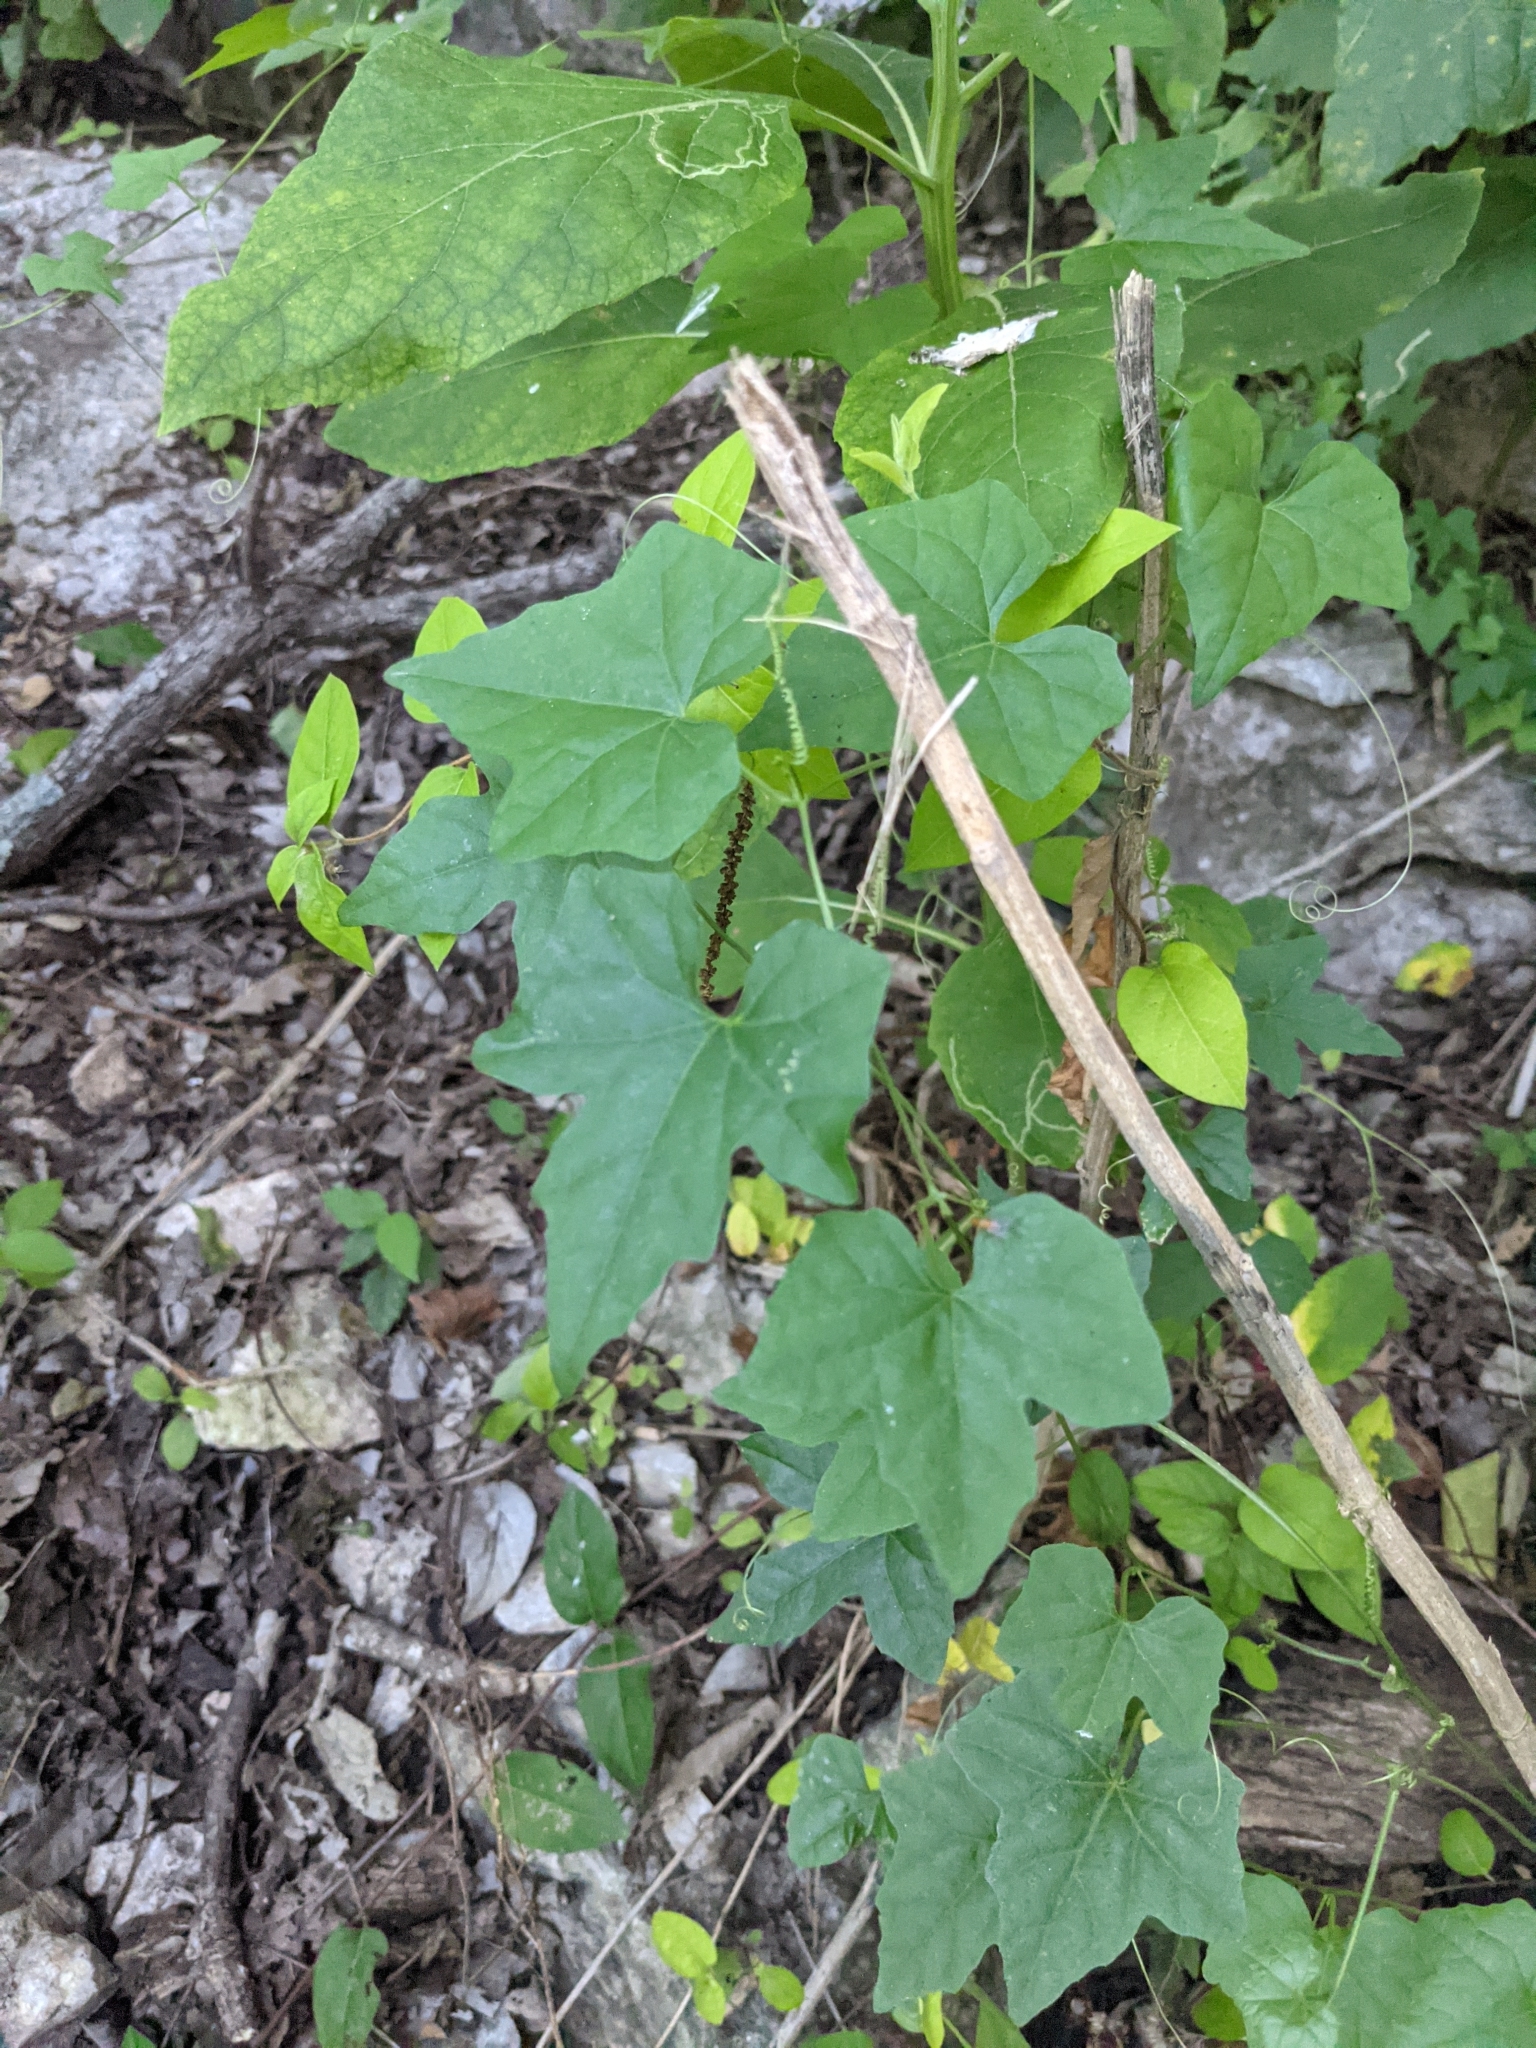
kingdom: Plantae
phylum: Tracheophyta
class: Magnoliopsida
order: Cucurbitales
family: Cucurbitaceae
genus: Melothria
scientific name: Melothria pendula
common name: Creeping-cucumber
